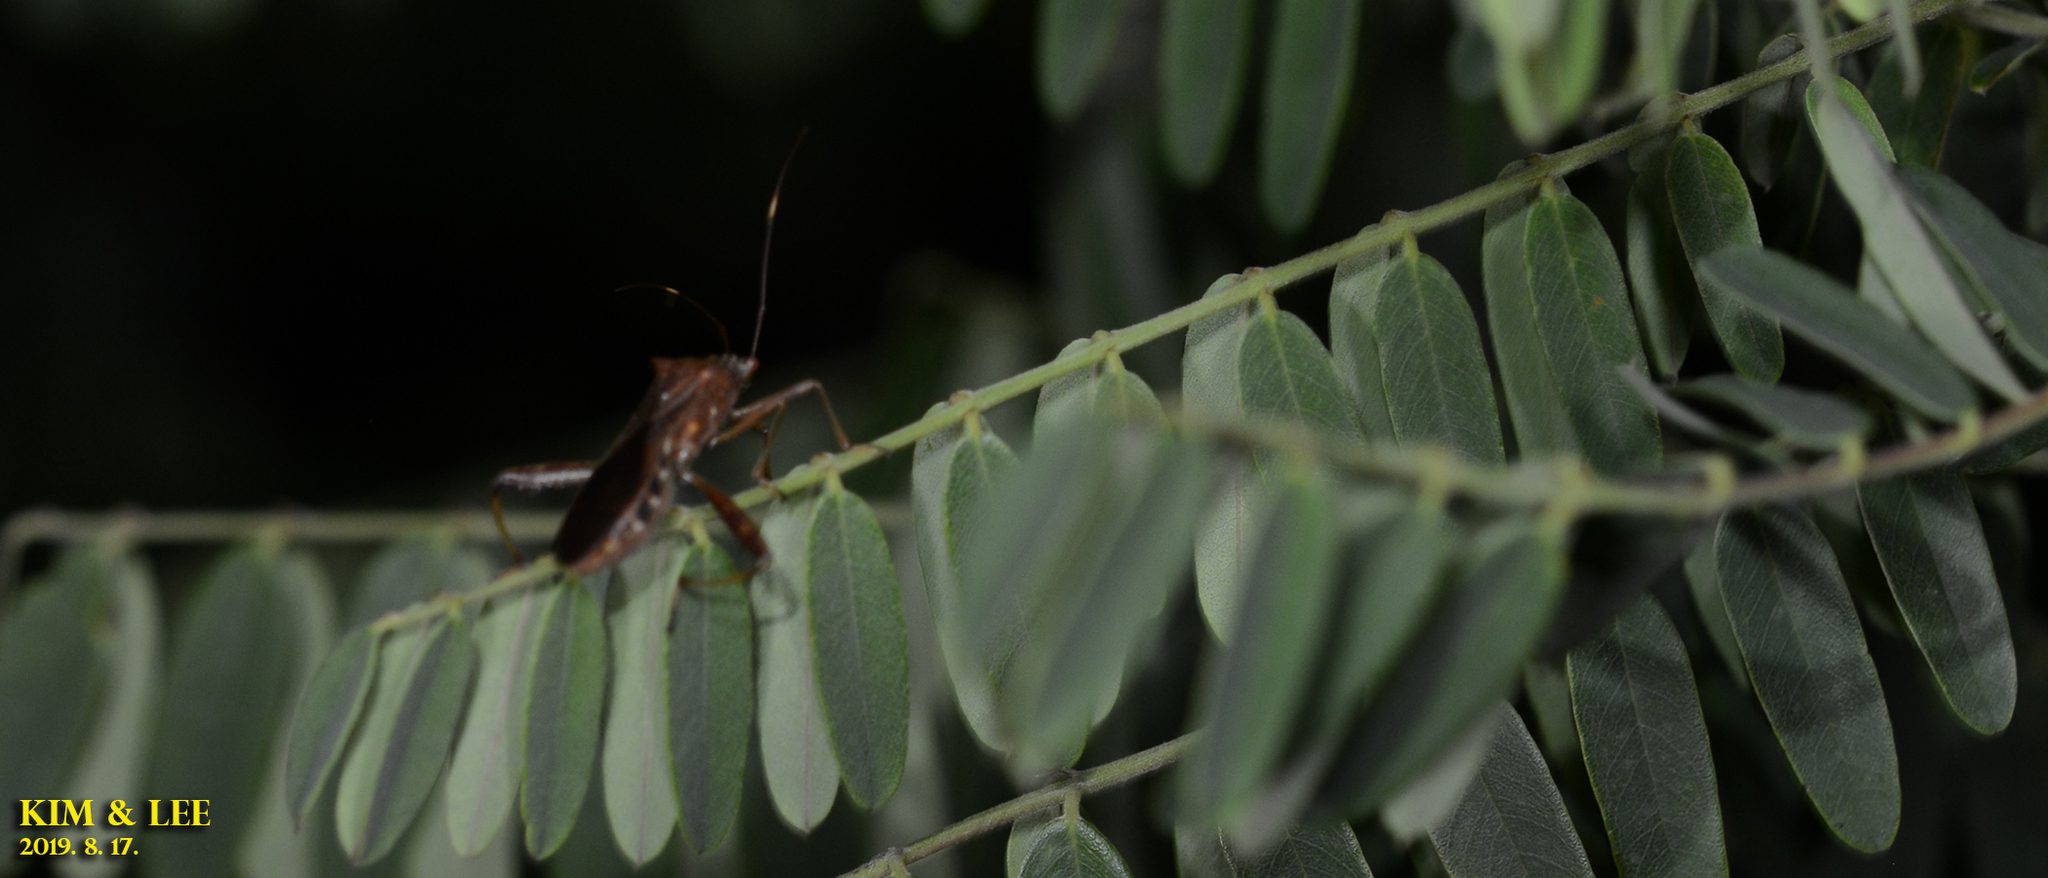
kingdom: Animalia
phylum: Arthropoda
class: Insecta
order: Hemiptera
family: Alydidae
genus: Riptortus
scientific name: Riptortus pedestris
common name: Bean bug
